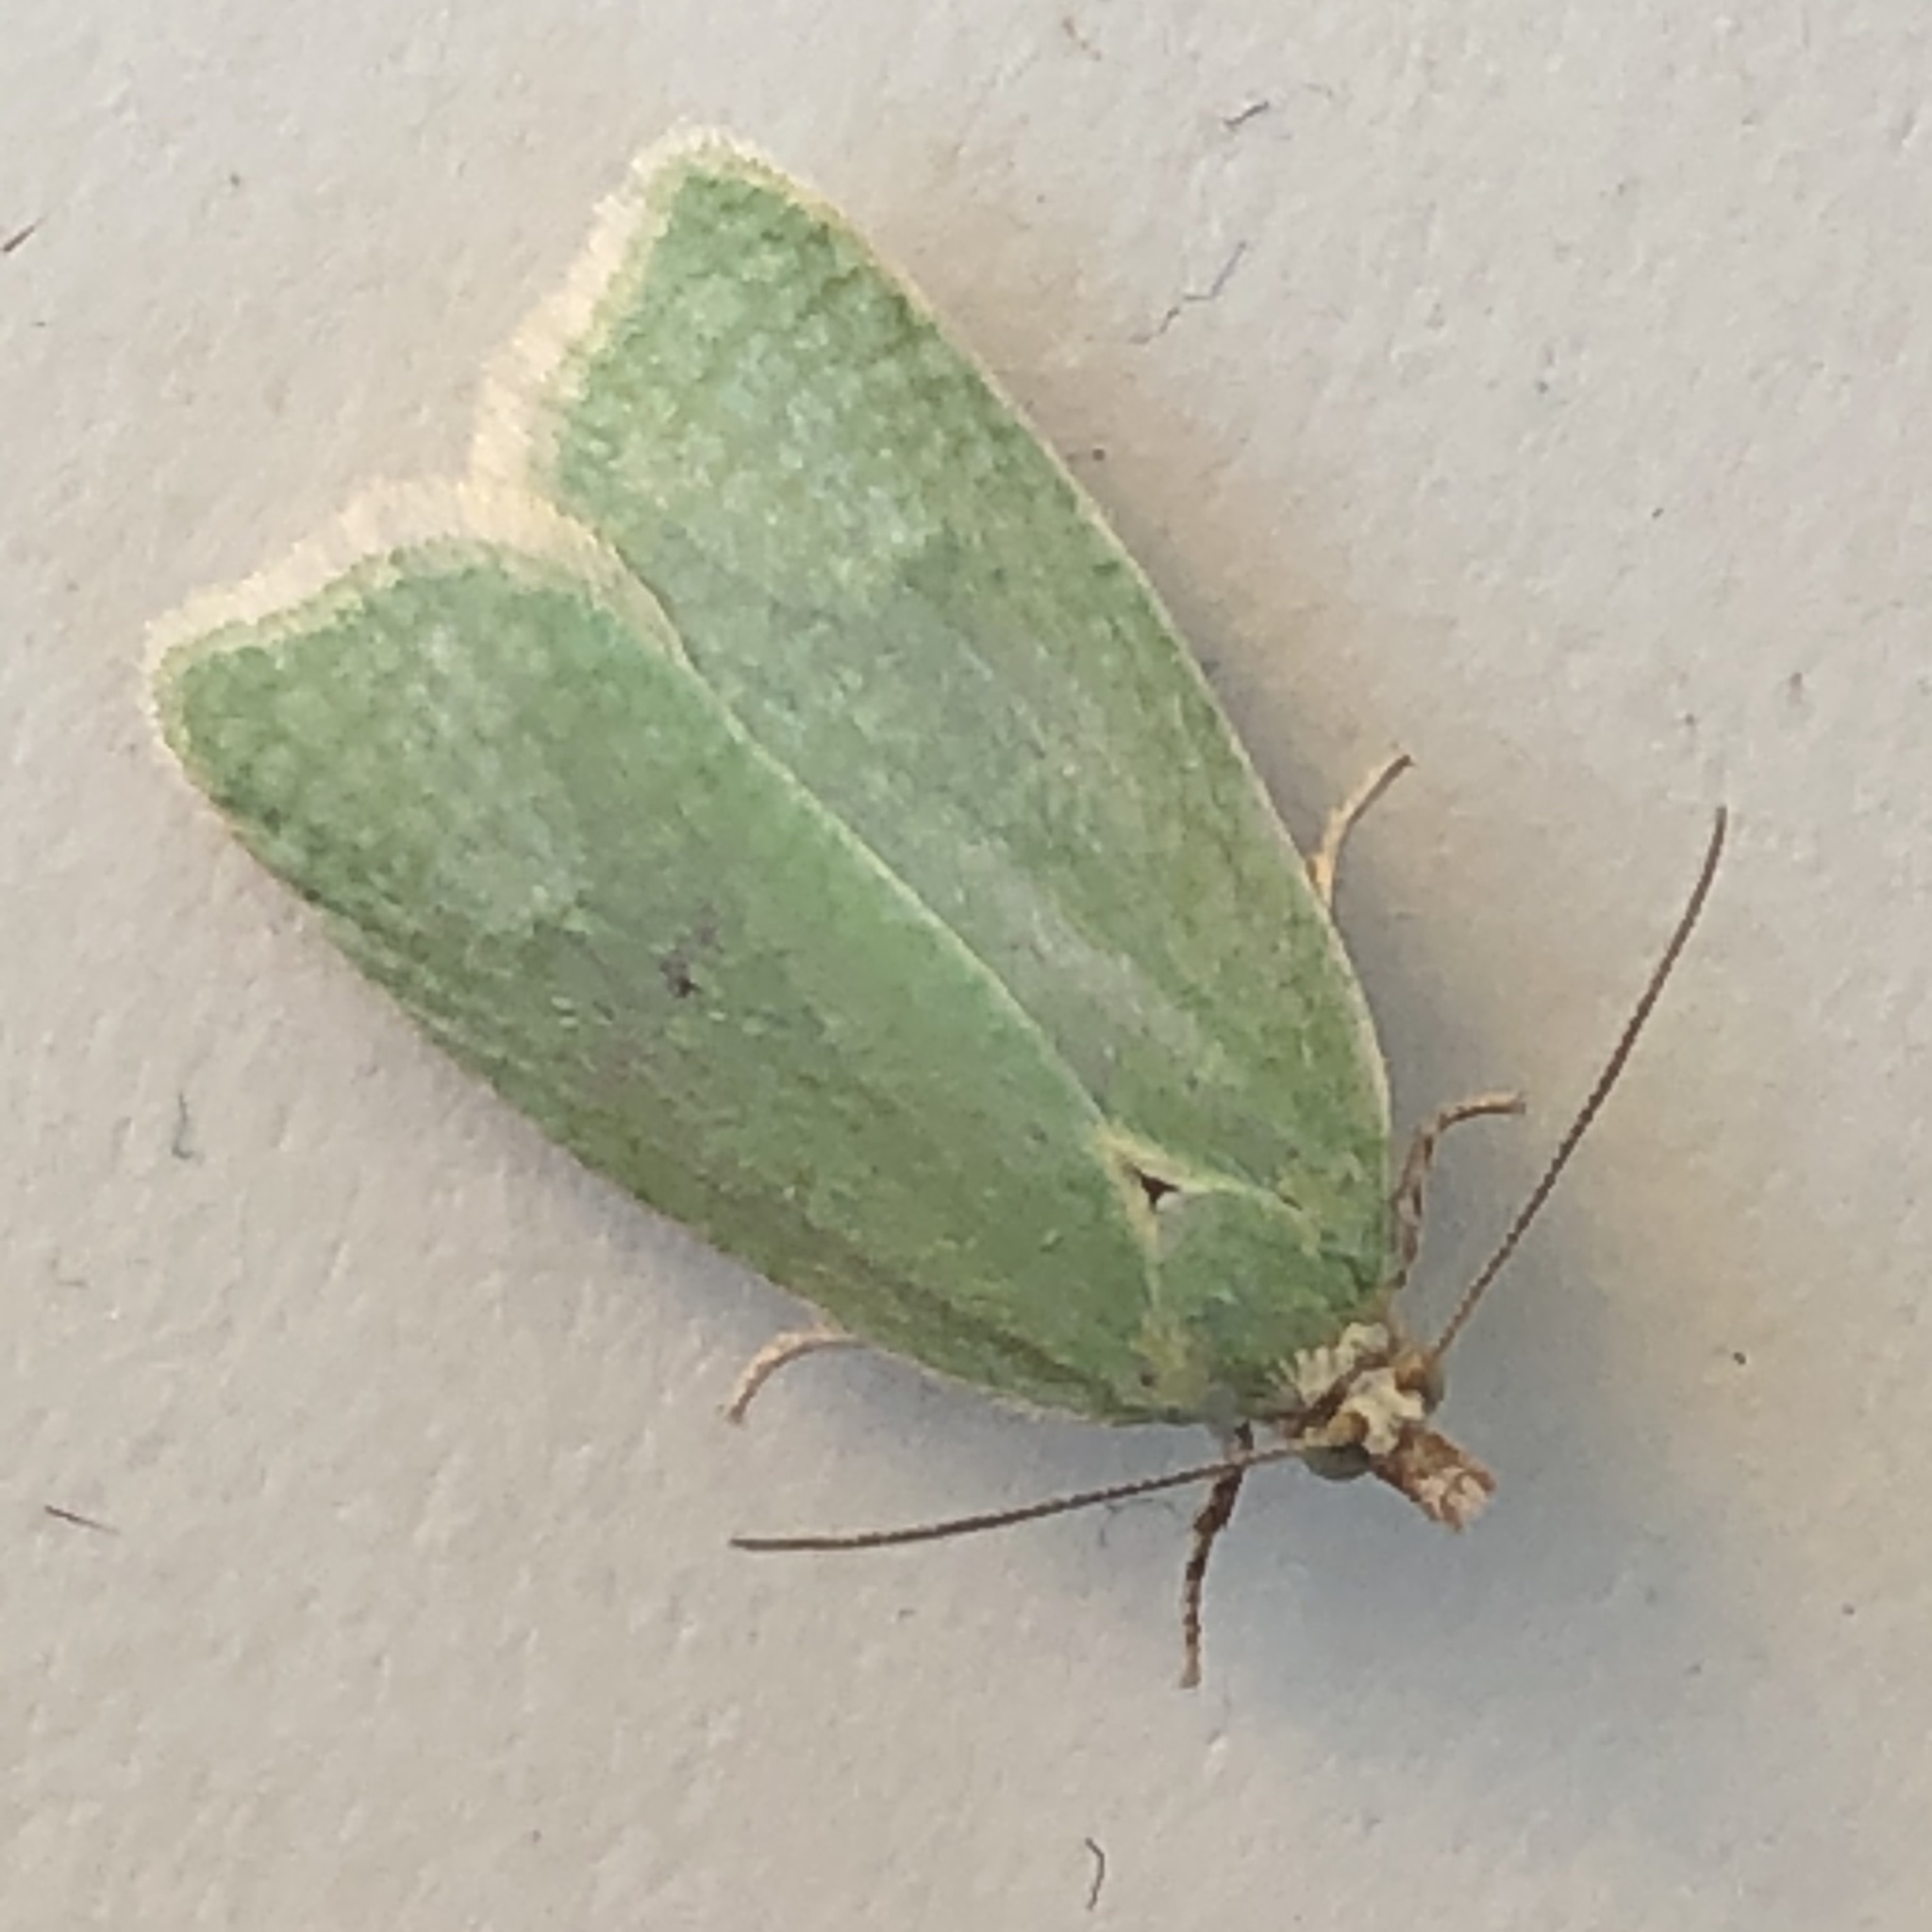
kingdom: Animalia
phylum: Arthropoda
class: Insecta
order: Lepidoptera
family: Tortricidae
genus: Tortrix
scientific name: Tortrix viridana
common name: Green oak tortrix
